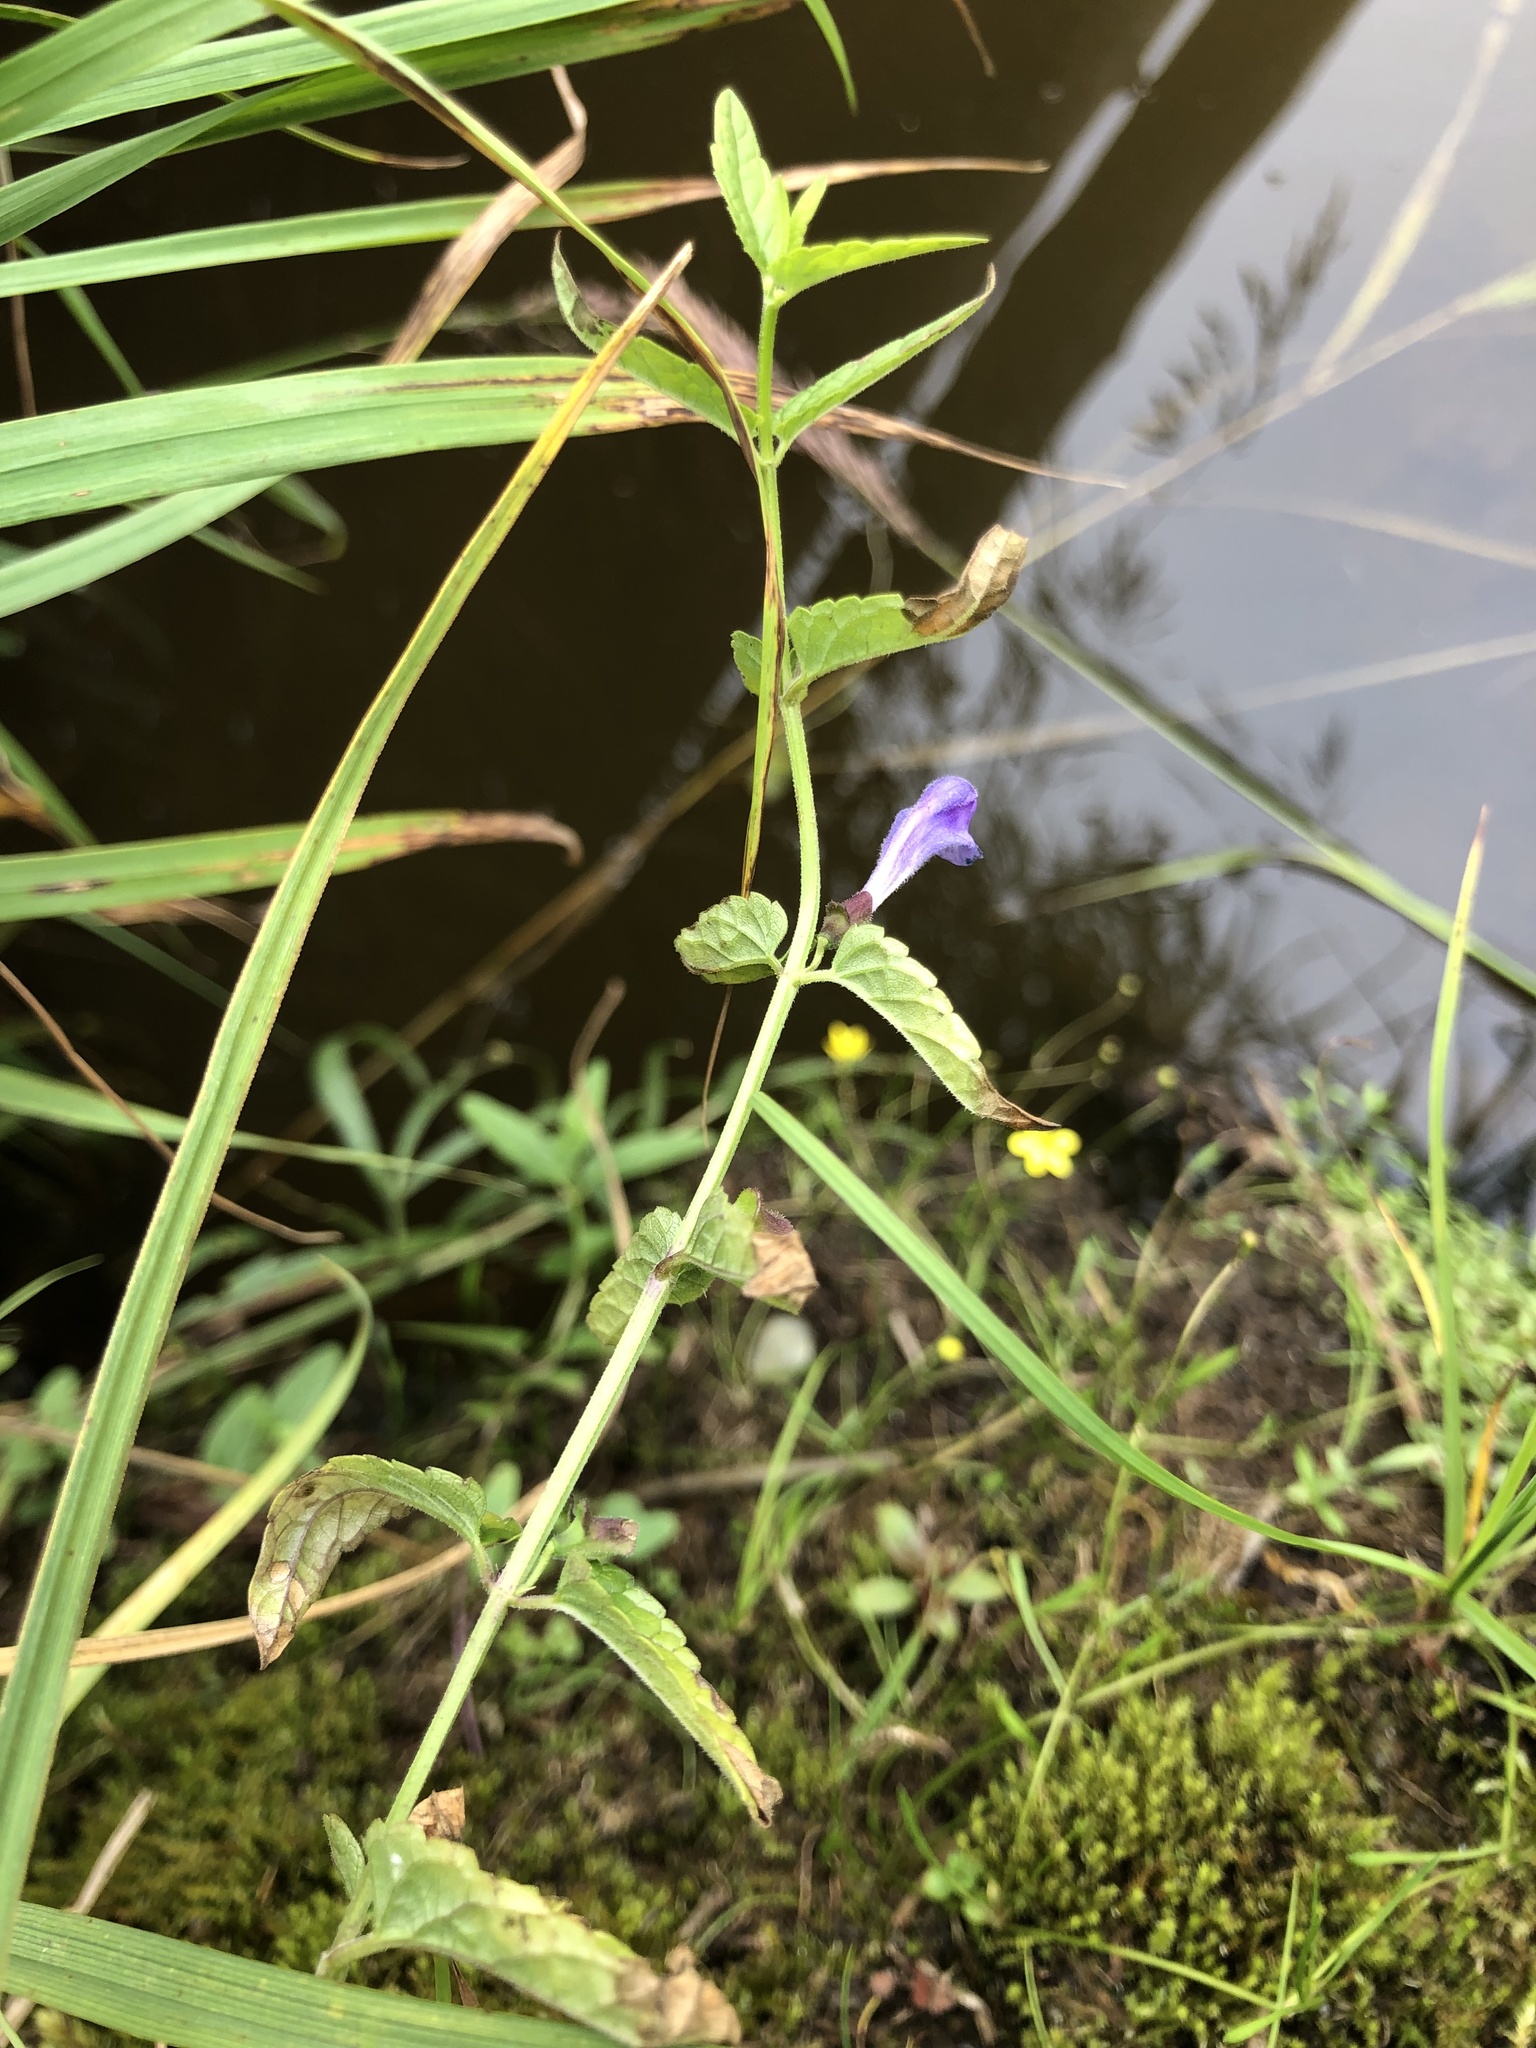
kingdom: Plantae
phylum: Tracheophyta
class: Magnoliopsida
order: Lamiales
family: Lamiaceae
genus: Scutellaria
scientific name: Scutellaria galericulata
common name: Skullcap
